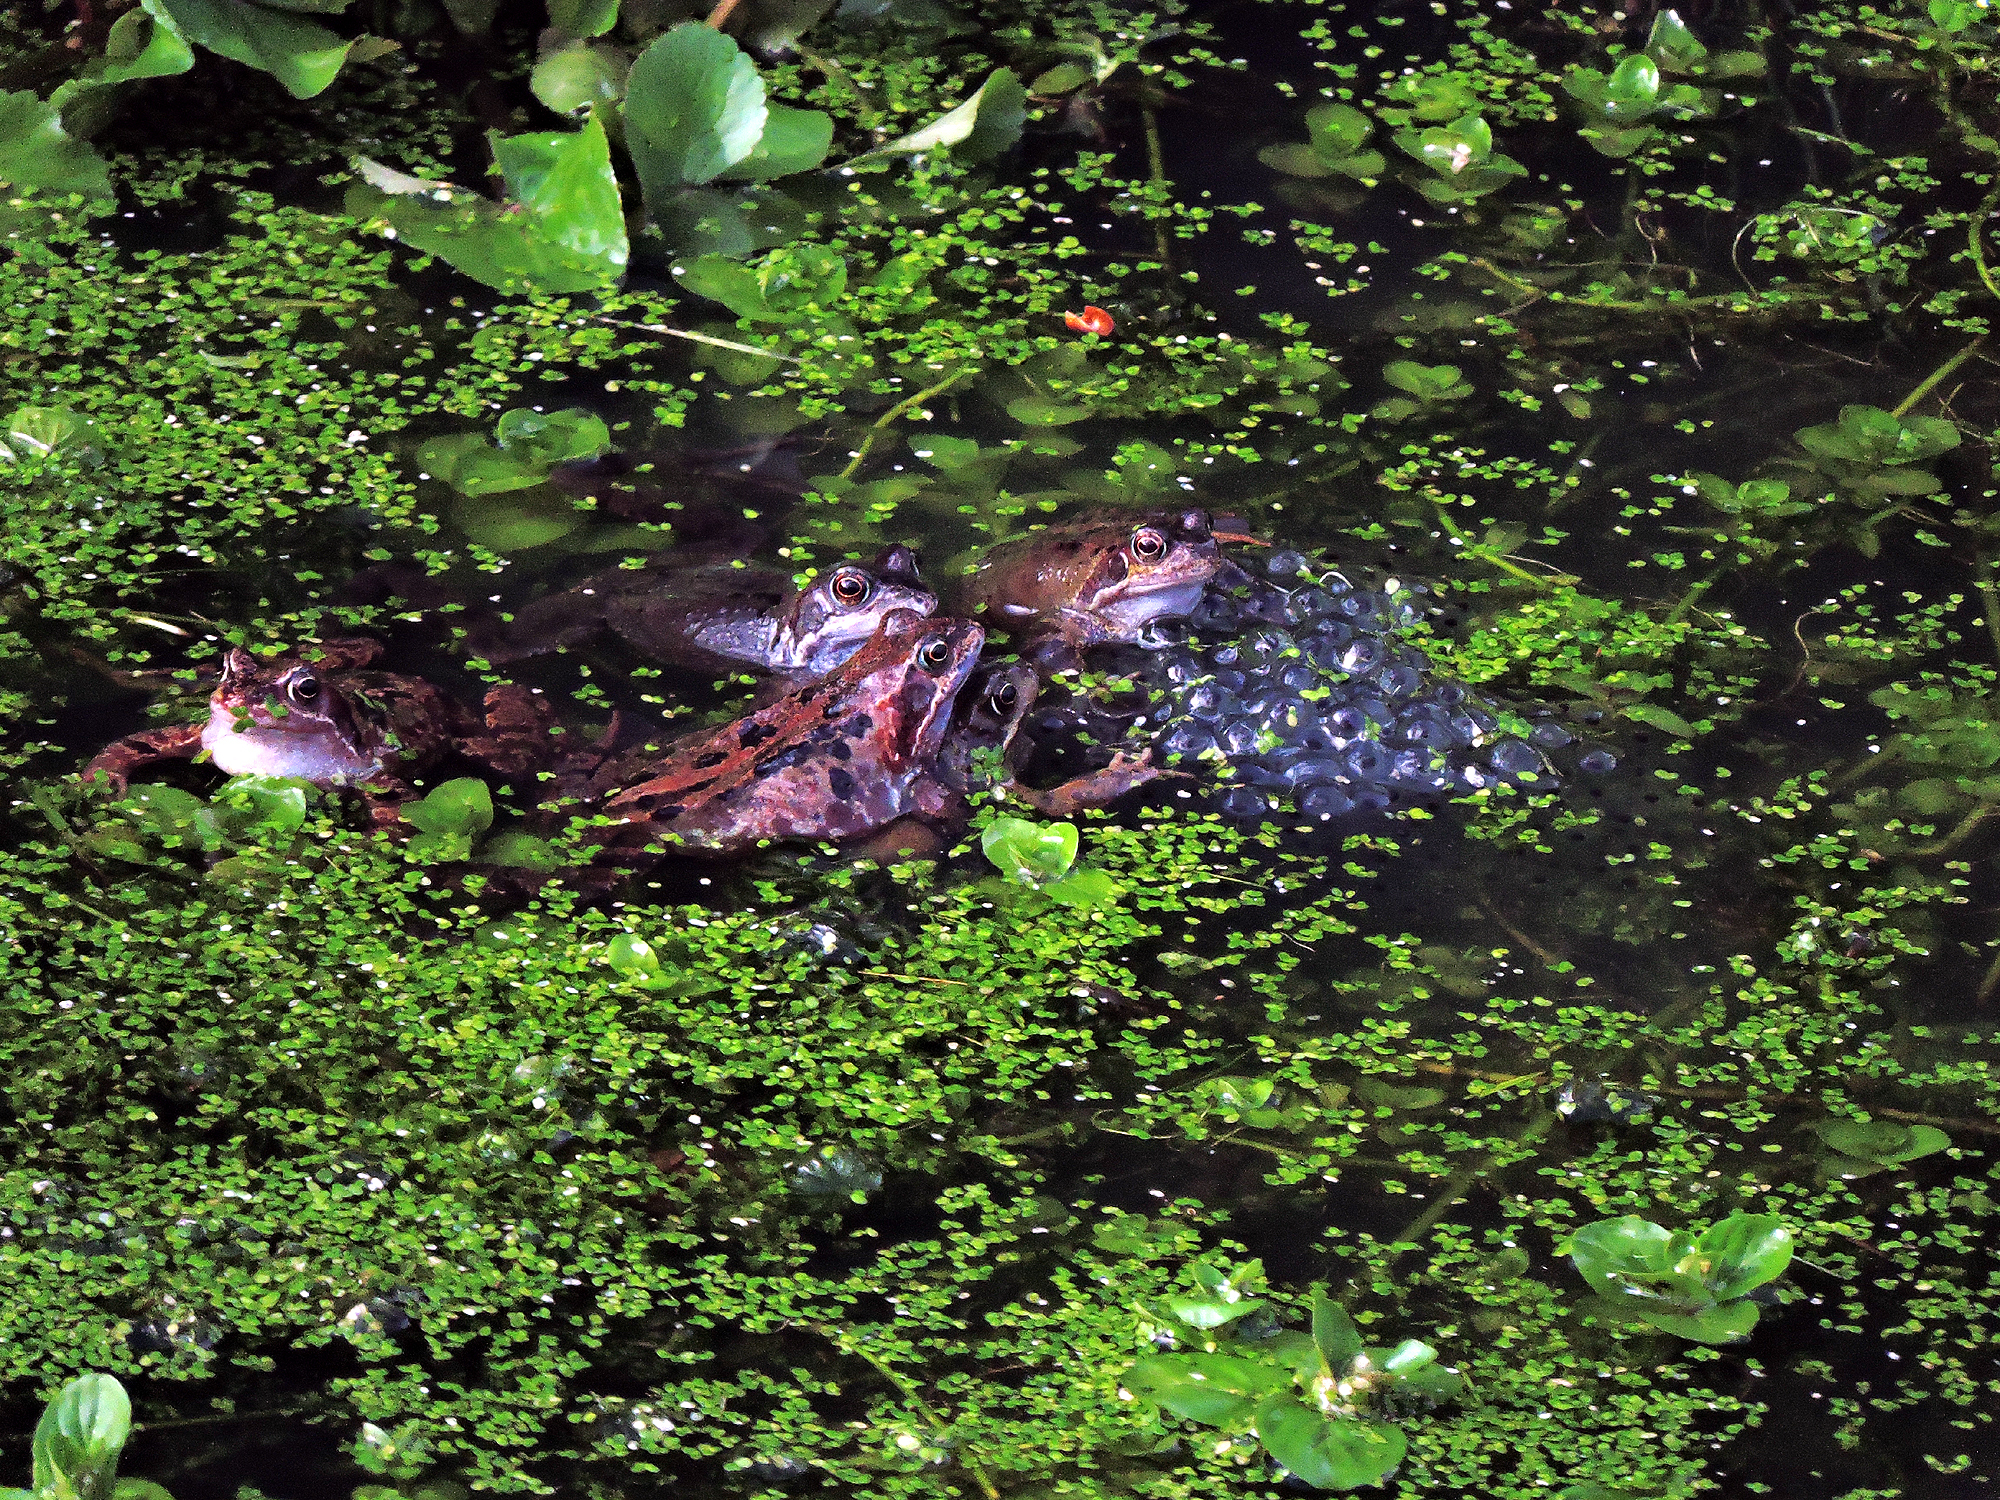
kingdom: Animalia
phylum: Chordata
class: Amphibia
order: Anura
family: Ranidae
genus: Rana
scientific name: Rana temporaria
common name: Common frog
